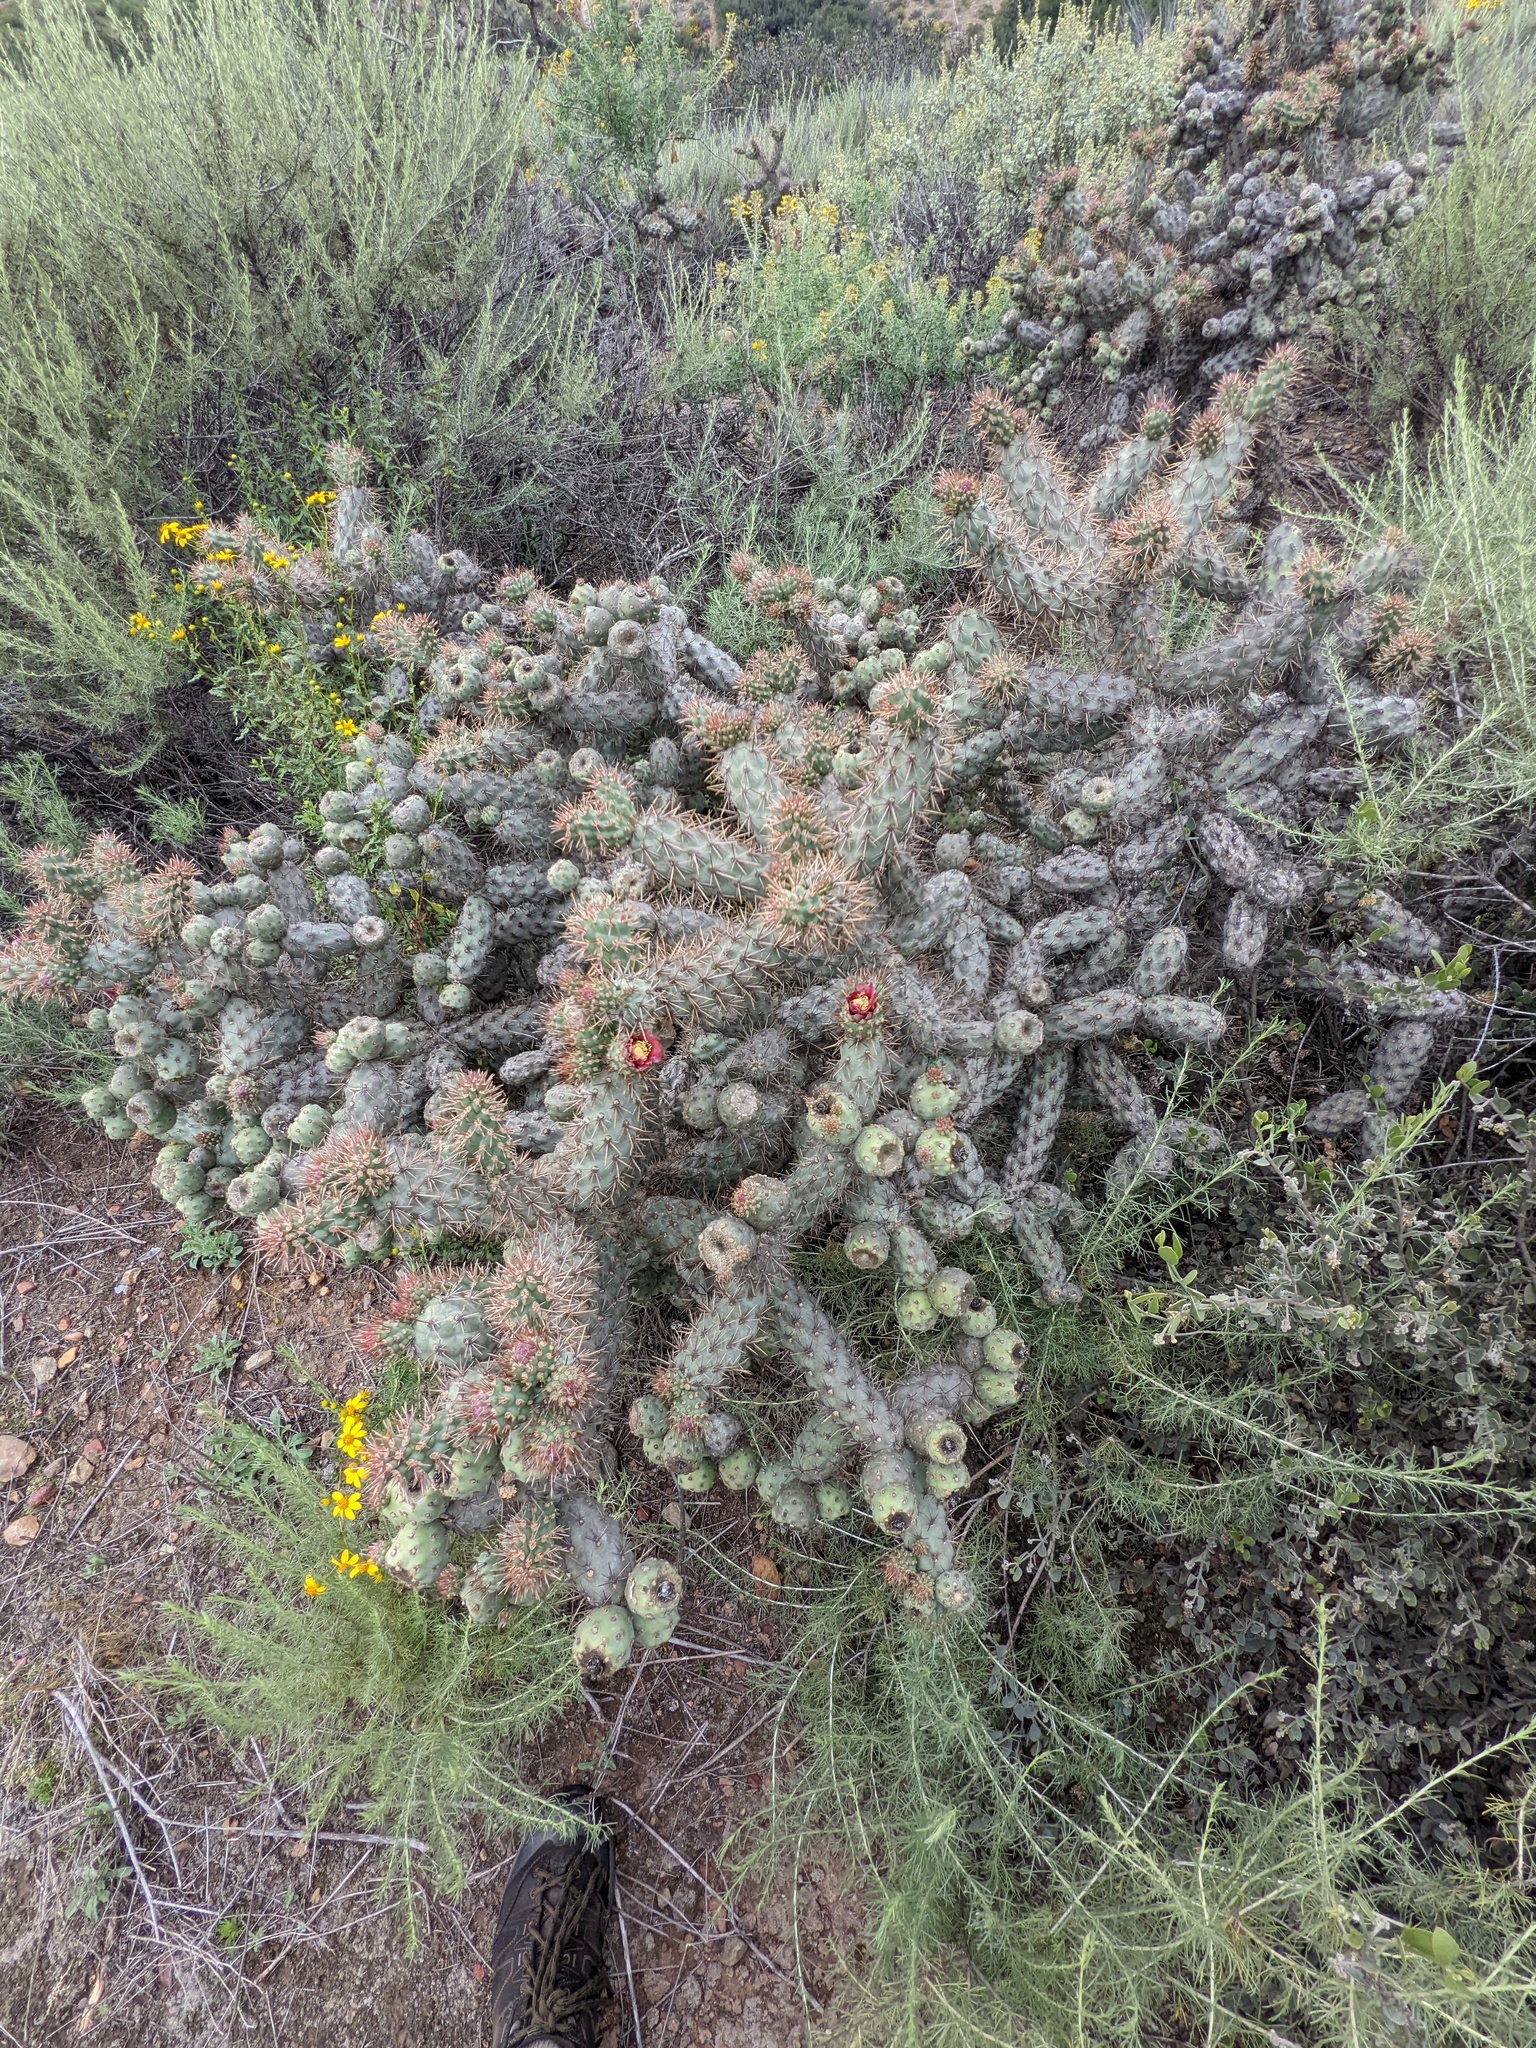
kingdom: Plantae
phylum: Tracheophyta
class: Magnoliopsida
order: Caryophyllales
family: Cactaceae
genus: Cylindropuntia
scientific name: Cylindropuntia prolifera
